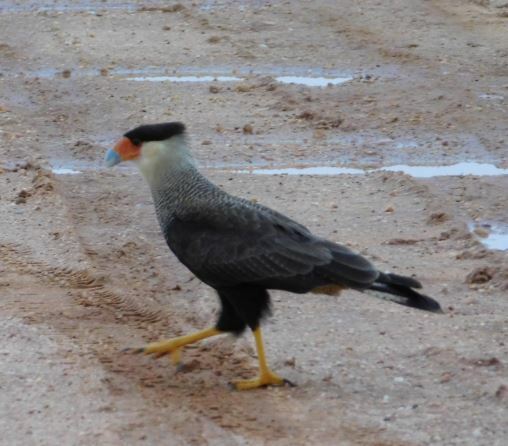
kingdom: Animalia
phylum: Chordata
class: Aves
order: Falconiformes
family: Falconidae
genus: Caracara
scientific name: Caracara plancus
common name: Southern caracara
